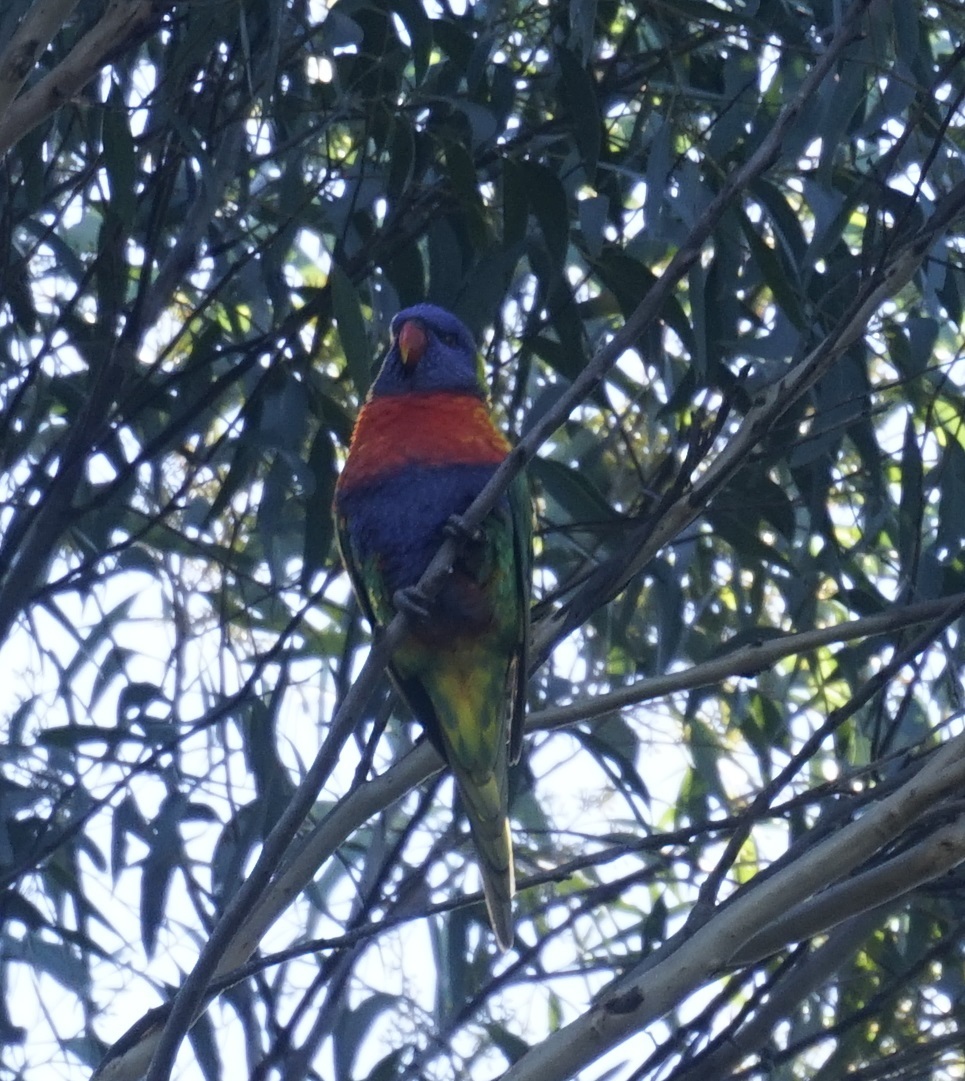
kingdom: Animalia
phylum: Chordata
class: Aves
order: Psittaciformes
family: Psittacidae
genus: Trichoglossus
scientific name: Trichoglossus haematodus
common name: Coconut lorikeet
